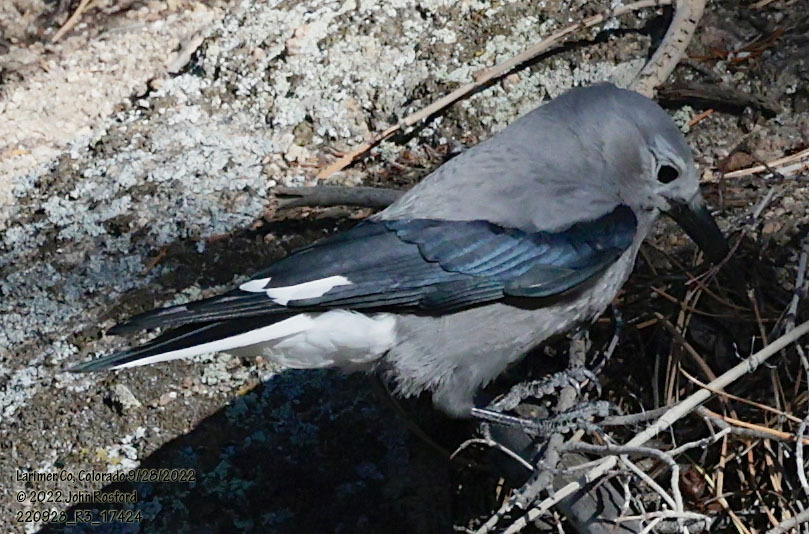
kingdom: Animalia
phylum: Chordata
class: Aves
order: Passeriformes
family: Corvidae
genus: Nucifraga
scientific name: Nucifraga columbiana
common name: Clark's nutcracker
